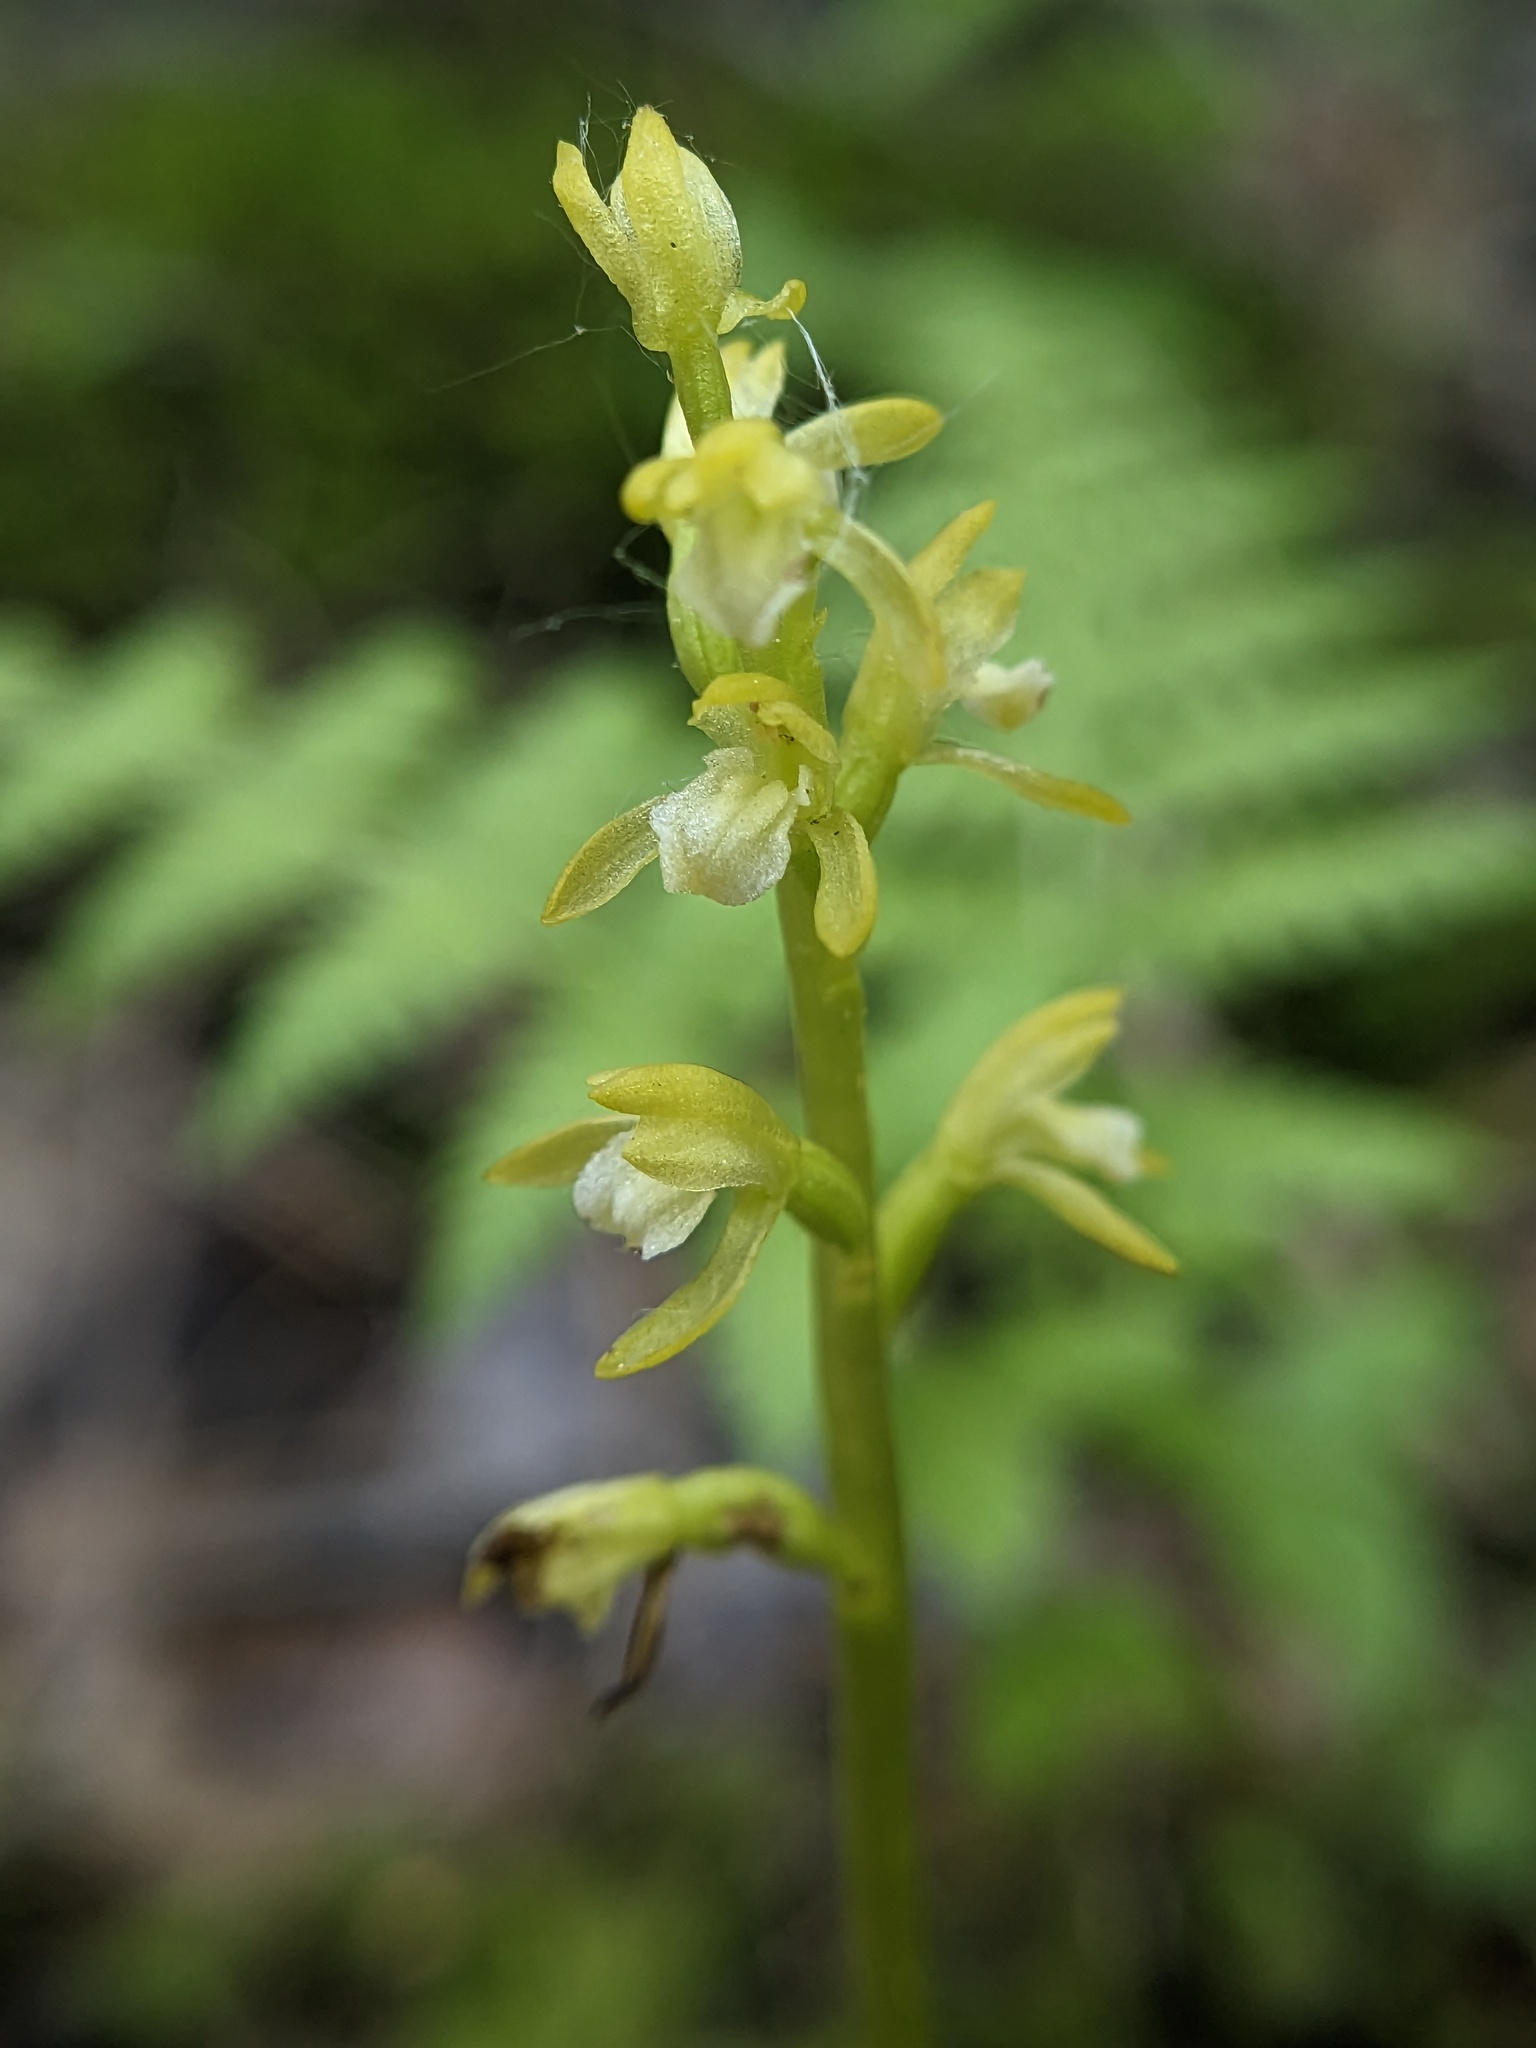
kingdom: Plantae
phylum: Tracheophyta
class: Liliopsida
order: Asparagales
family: Orchidaceae
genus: Corallorhiza
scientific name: Corallorhiza trifida
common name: Yellow coralroot
